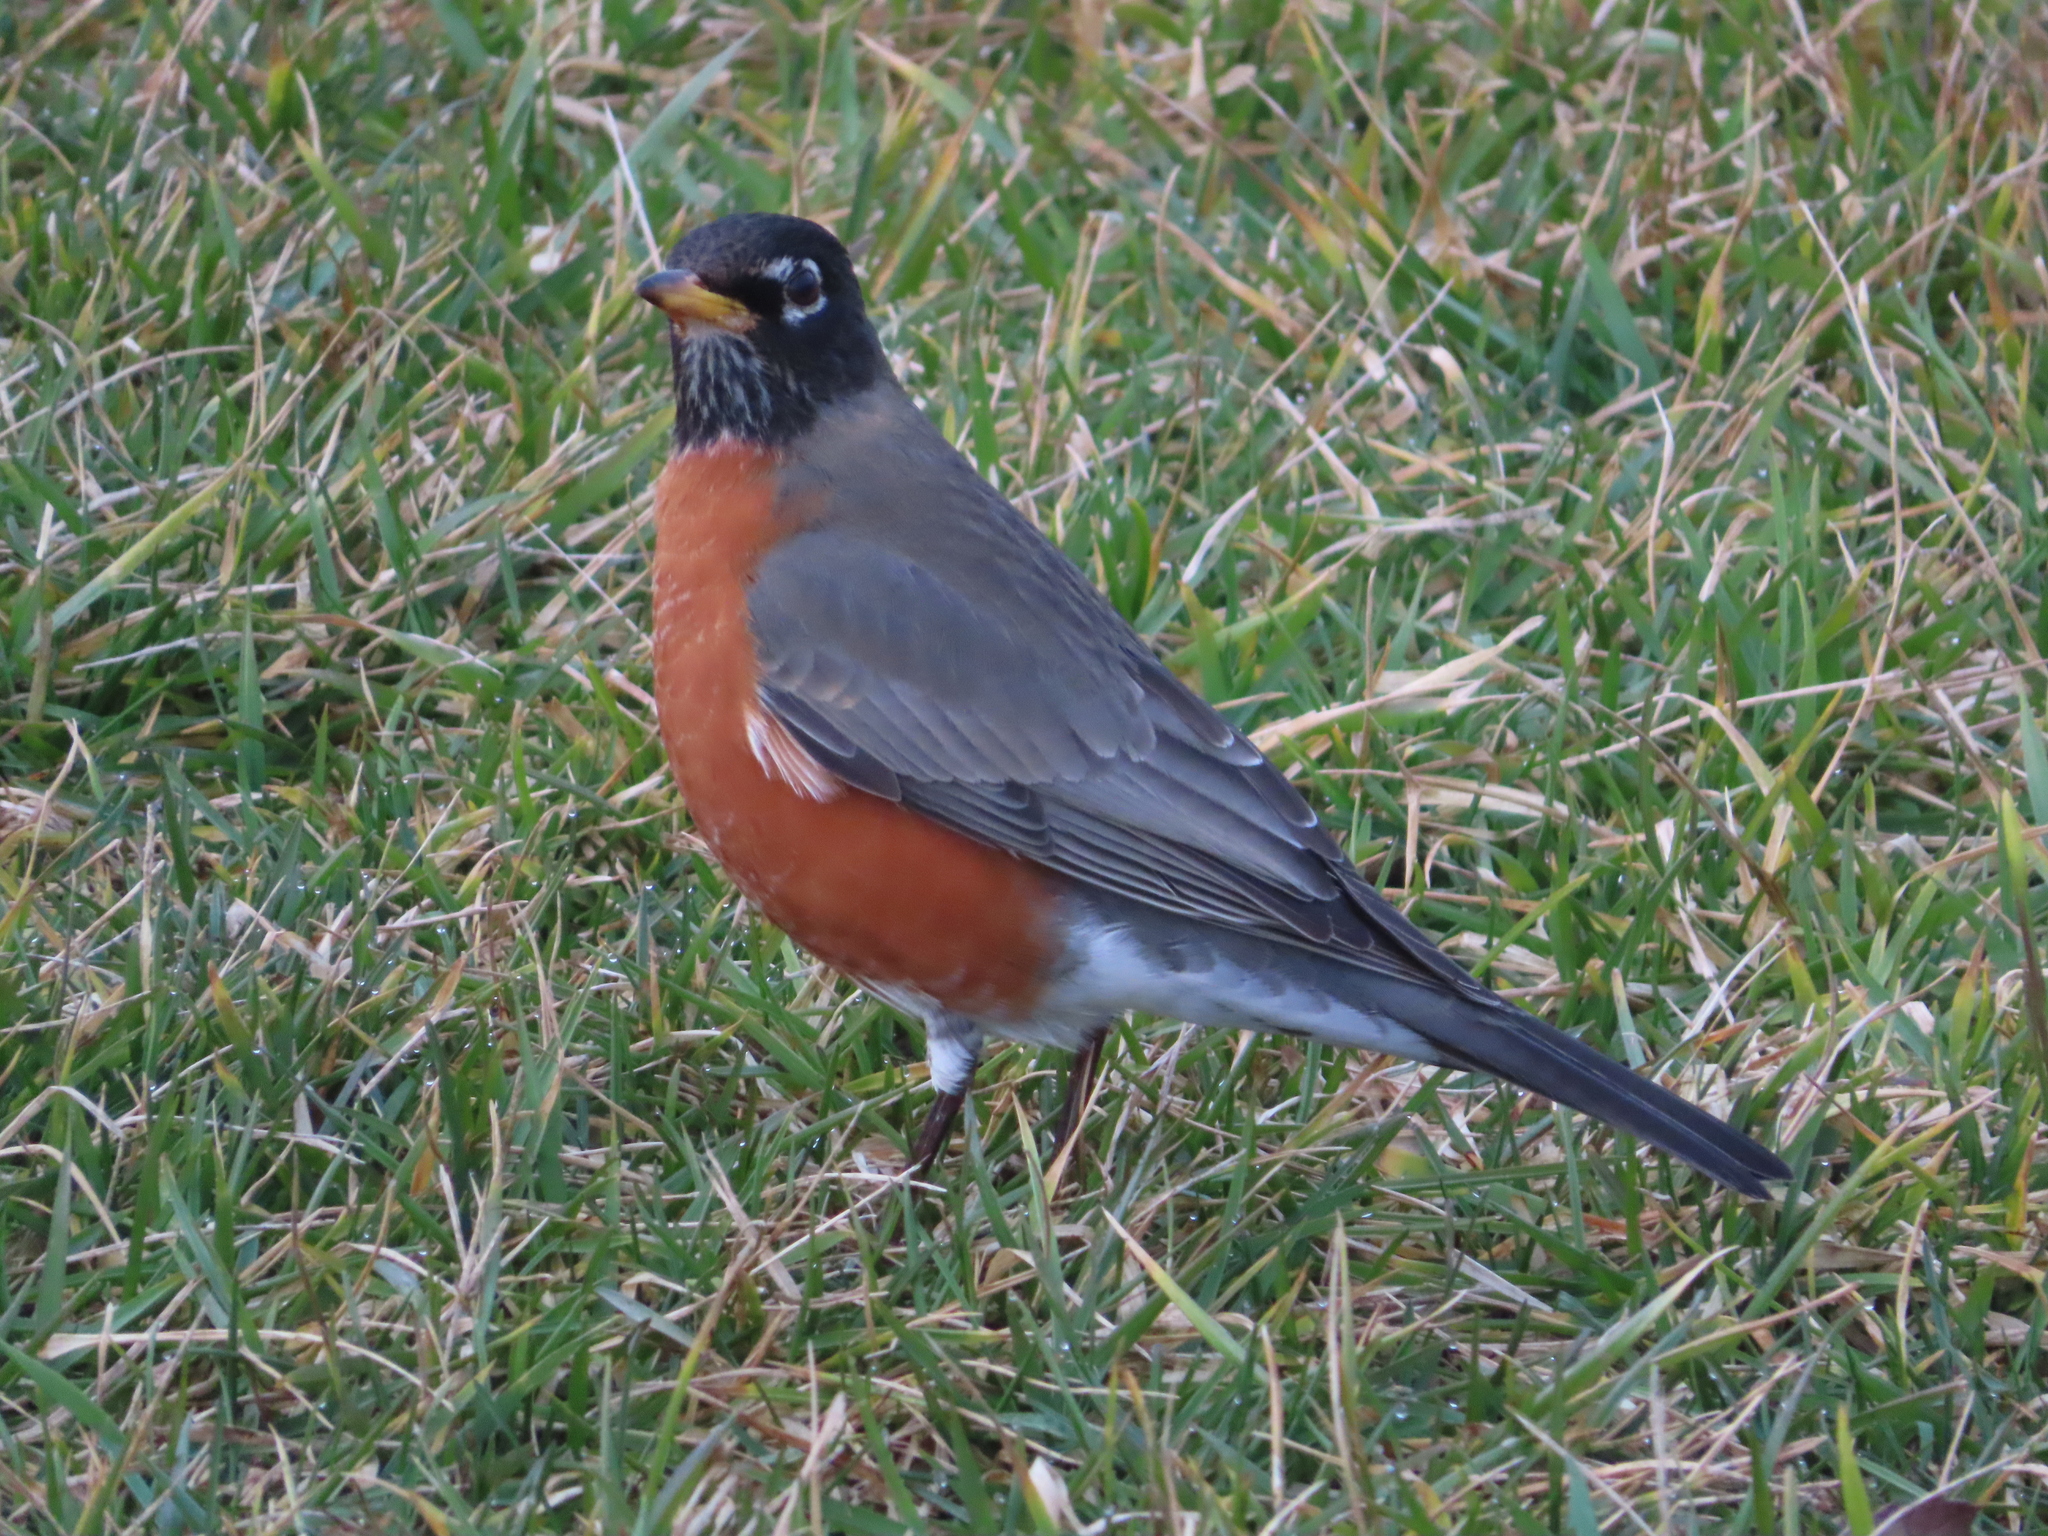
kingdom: Animalia
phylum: Chordata
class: Aves
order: Passeriformes
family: Turdidae
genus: Turdus
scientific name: Turdus migratorius
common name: American robin
